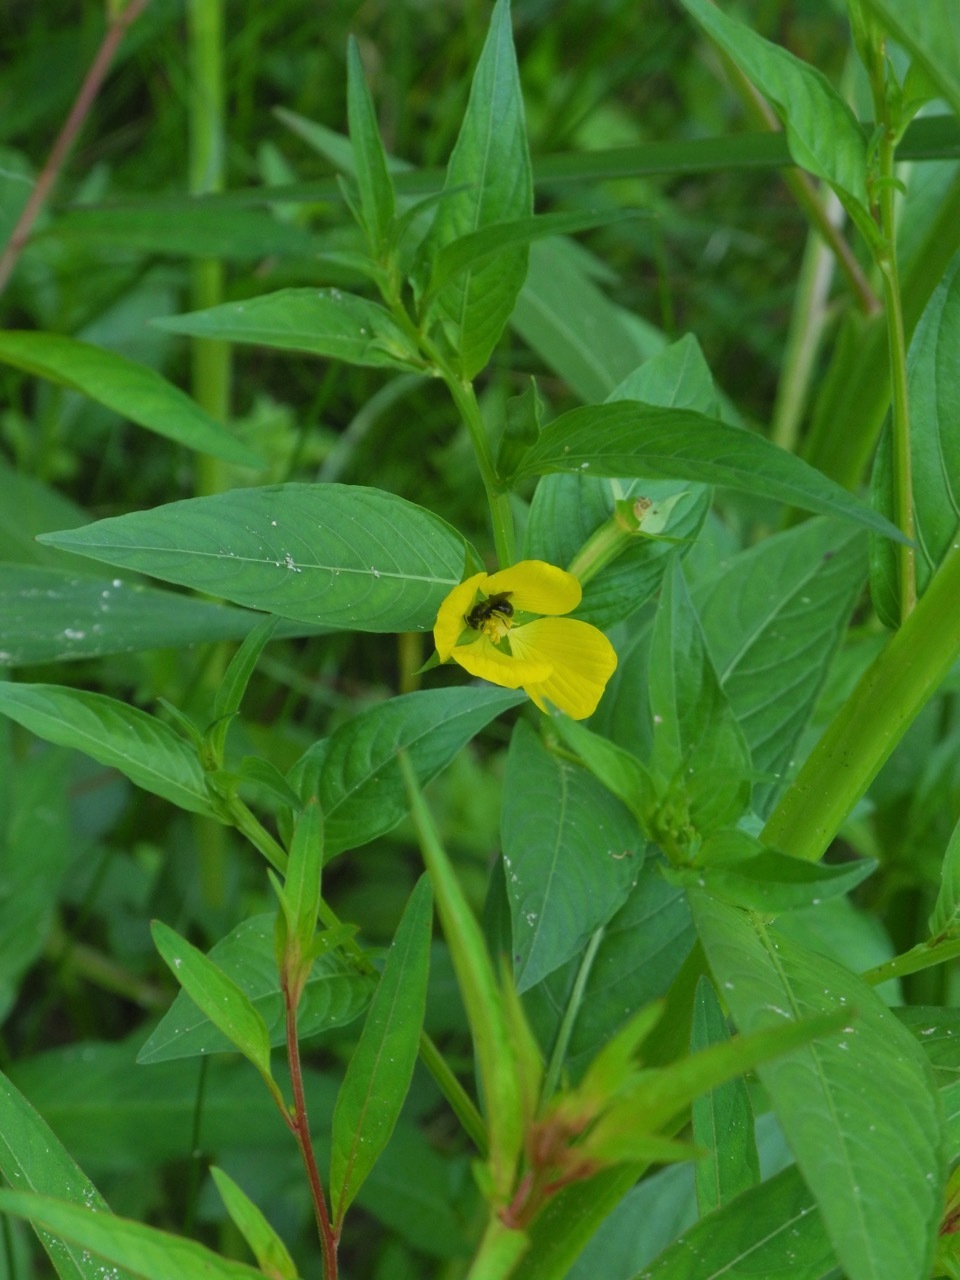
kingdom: Plantae
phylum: Tracheophyta
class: Magnoliopsida
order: Myrtales
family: Onagraceae
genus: Ludwigia
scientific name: Ludwigia decurrens
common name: Winged water-primrose
